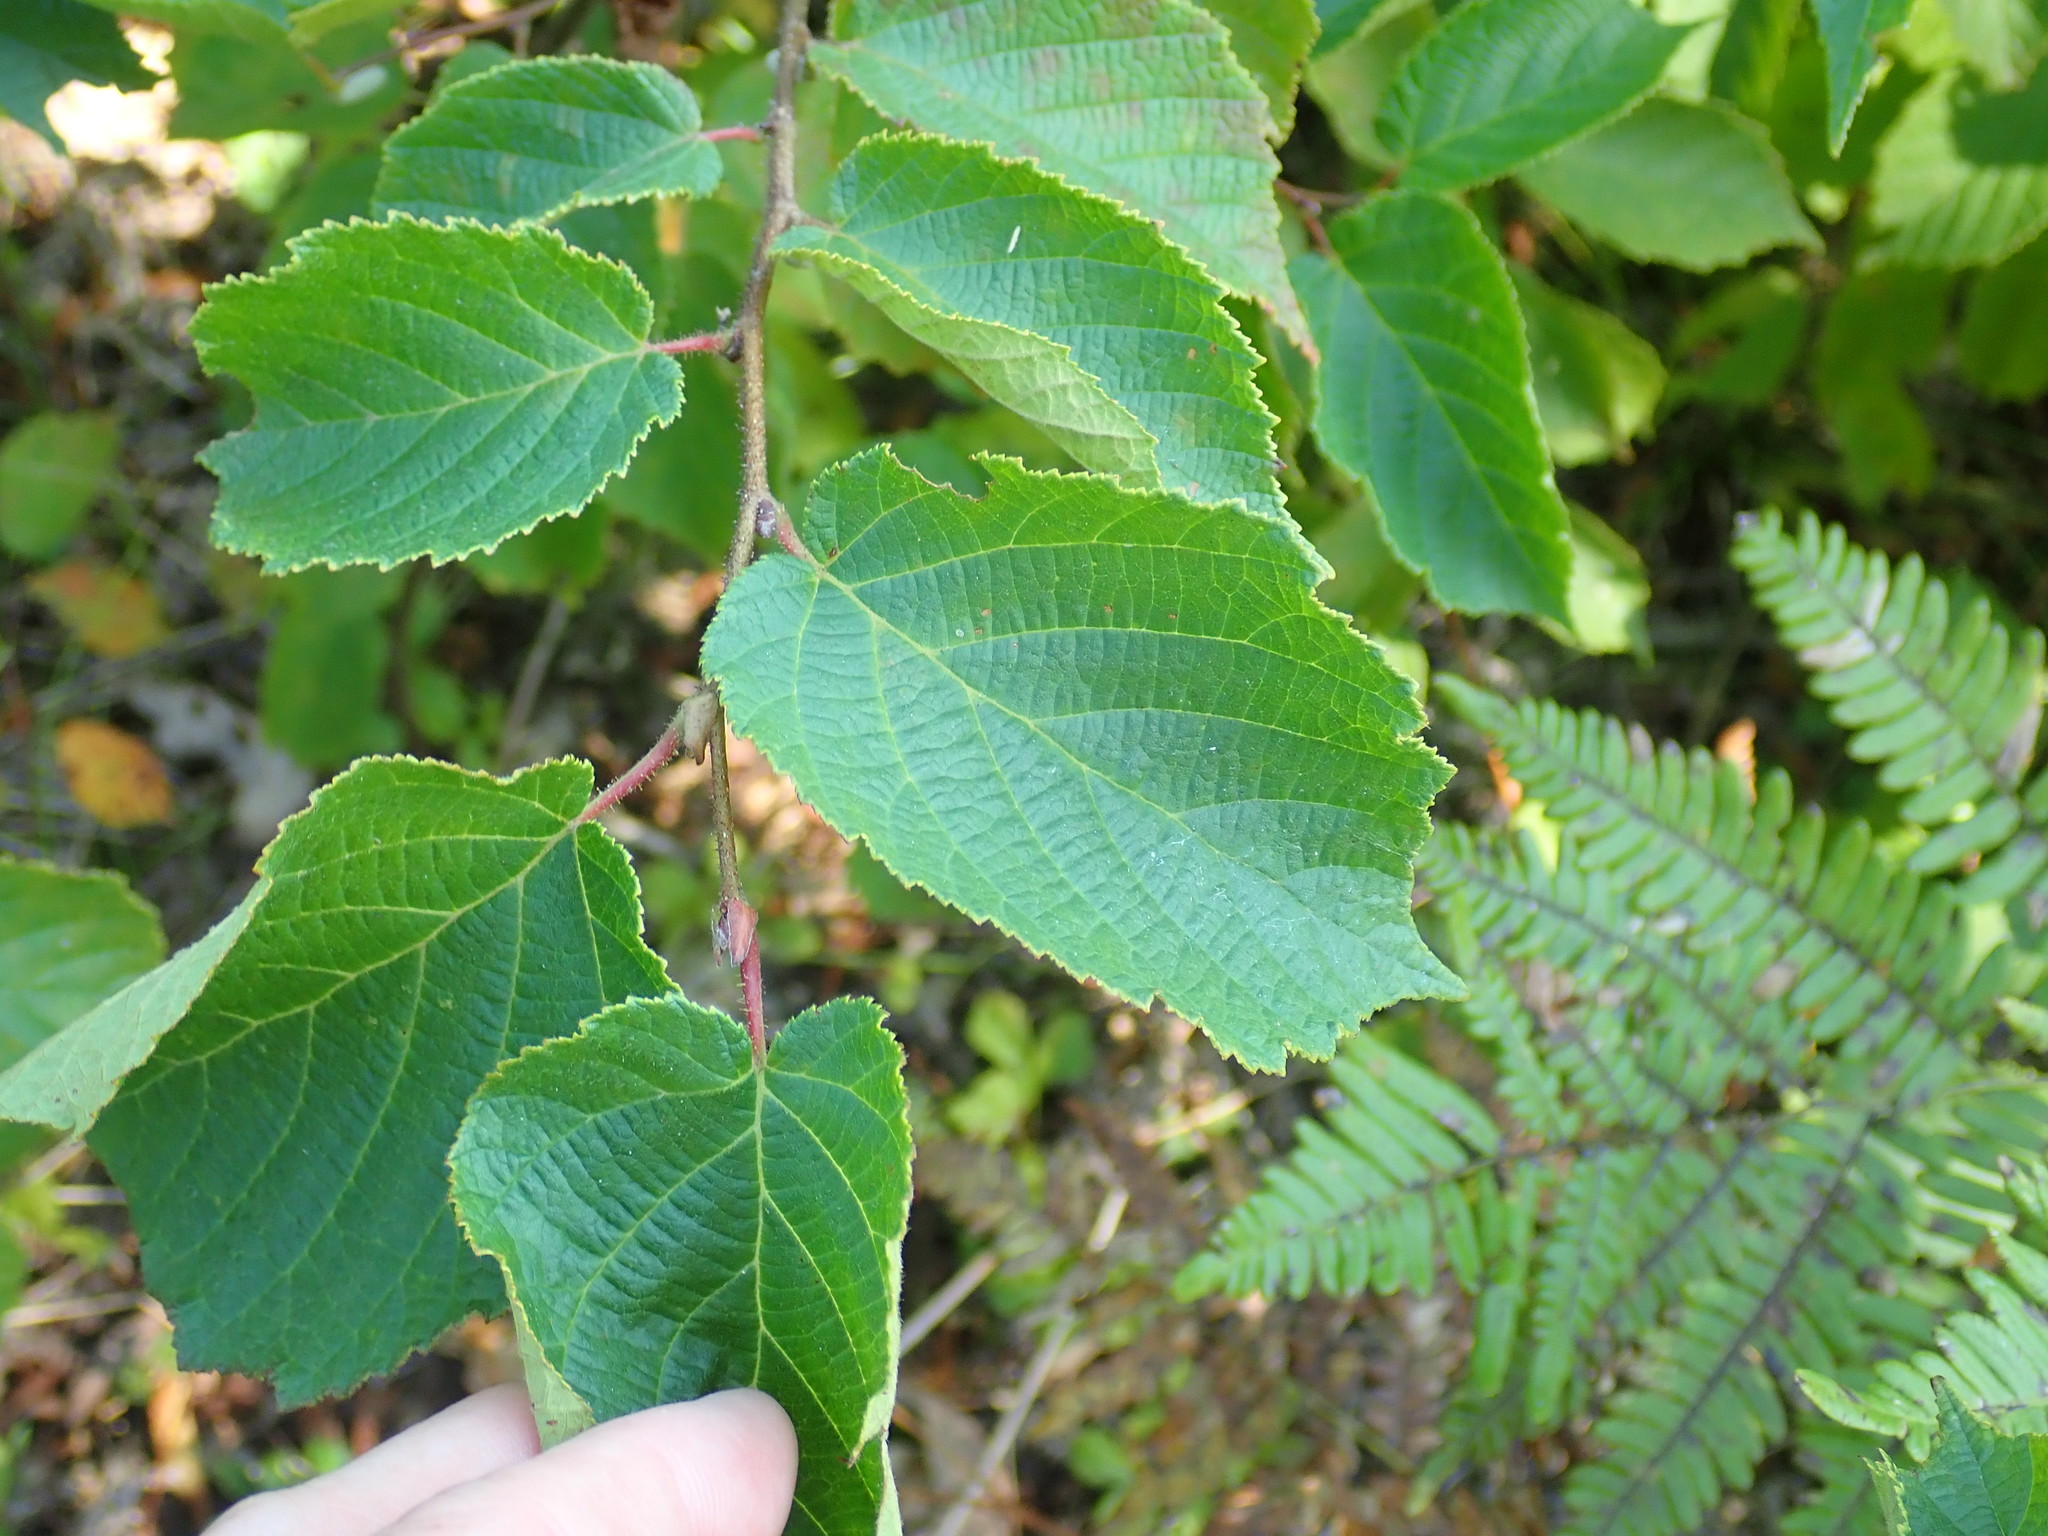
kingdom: Plantae
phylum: Tracheophyta
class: Magnoliopsida
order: Fagales
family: Betulaceae
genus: Corylus
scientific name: Corylus americana
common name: American hazel
